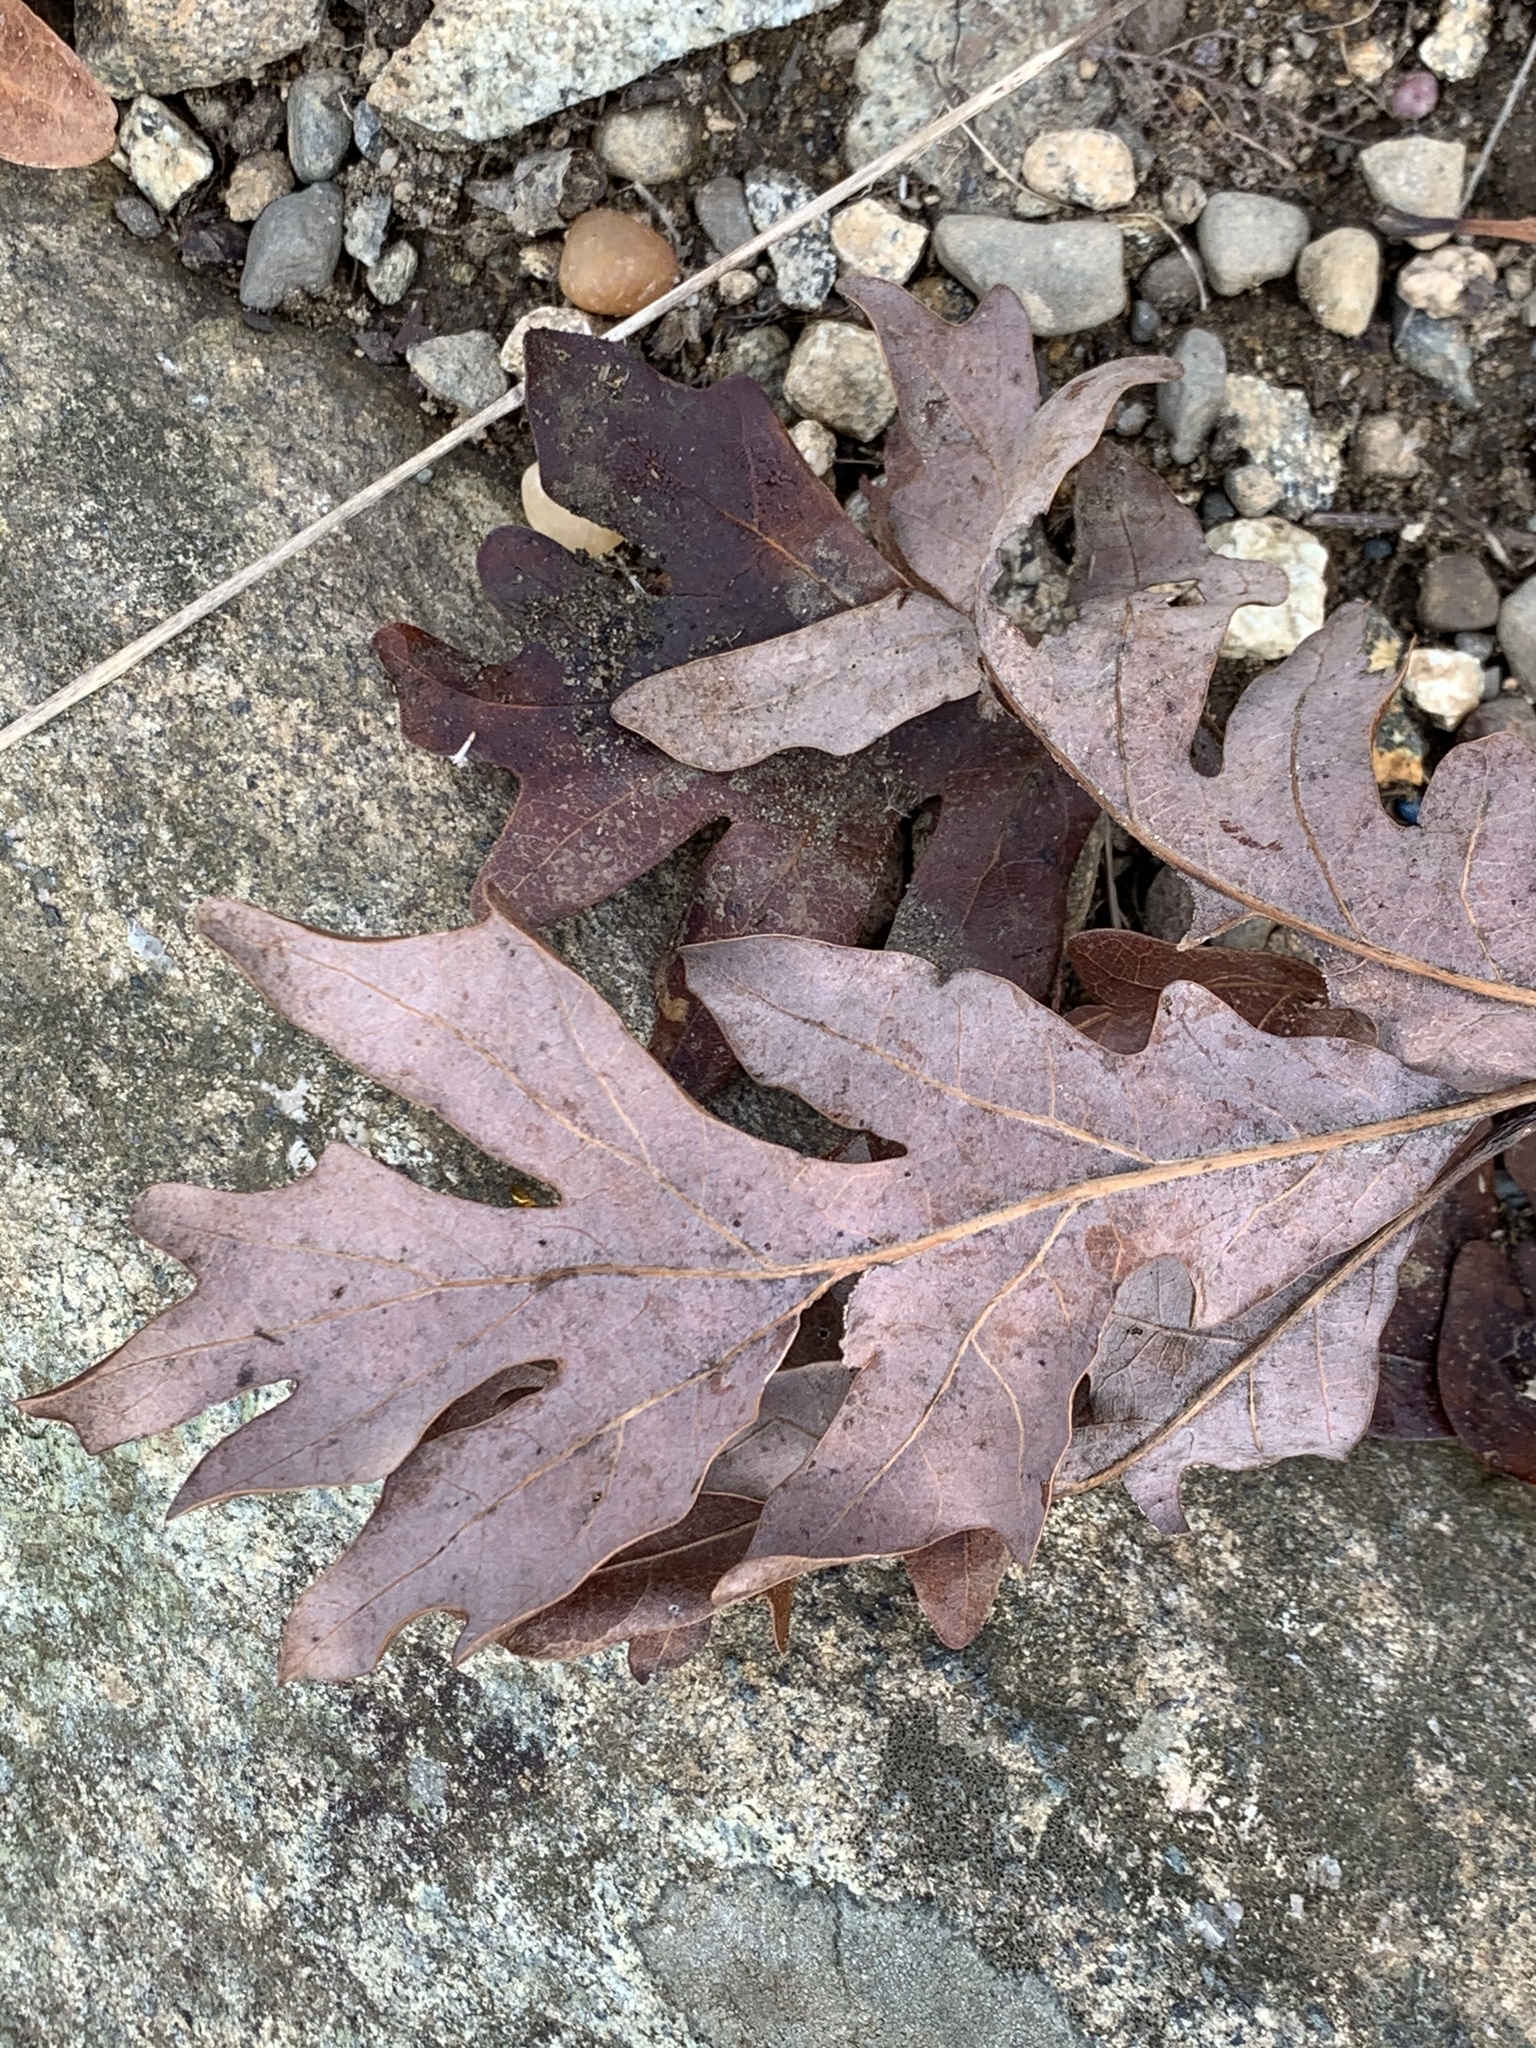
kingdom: Plantae
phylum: Tracheophyta
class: Magnoliopsida
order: Fagales
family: Fagaceae
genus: Quercus
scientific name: Quercus alba
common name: White oak
